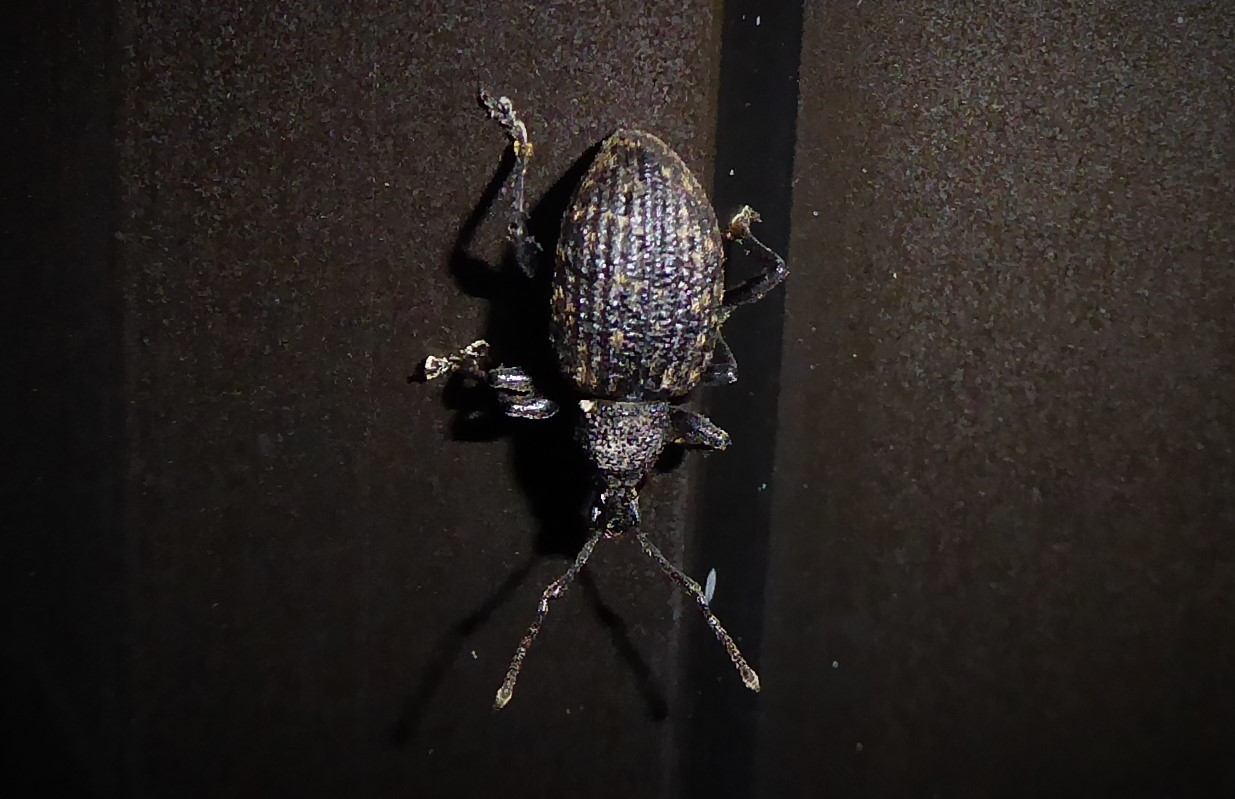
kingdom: Animalia
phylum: Arthropoda
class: Insecta
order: Coleoptera
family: Curculionidae
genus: Otiorhynchus
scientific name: Otiorhynchus sulcatus
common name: Black vine weevil
